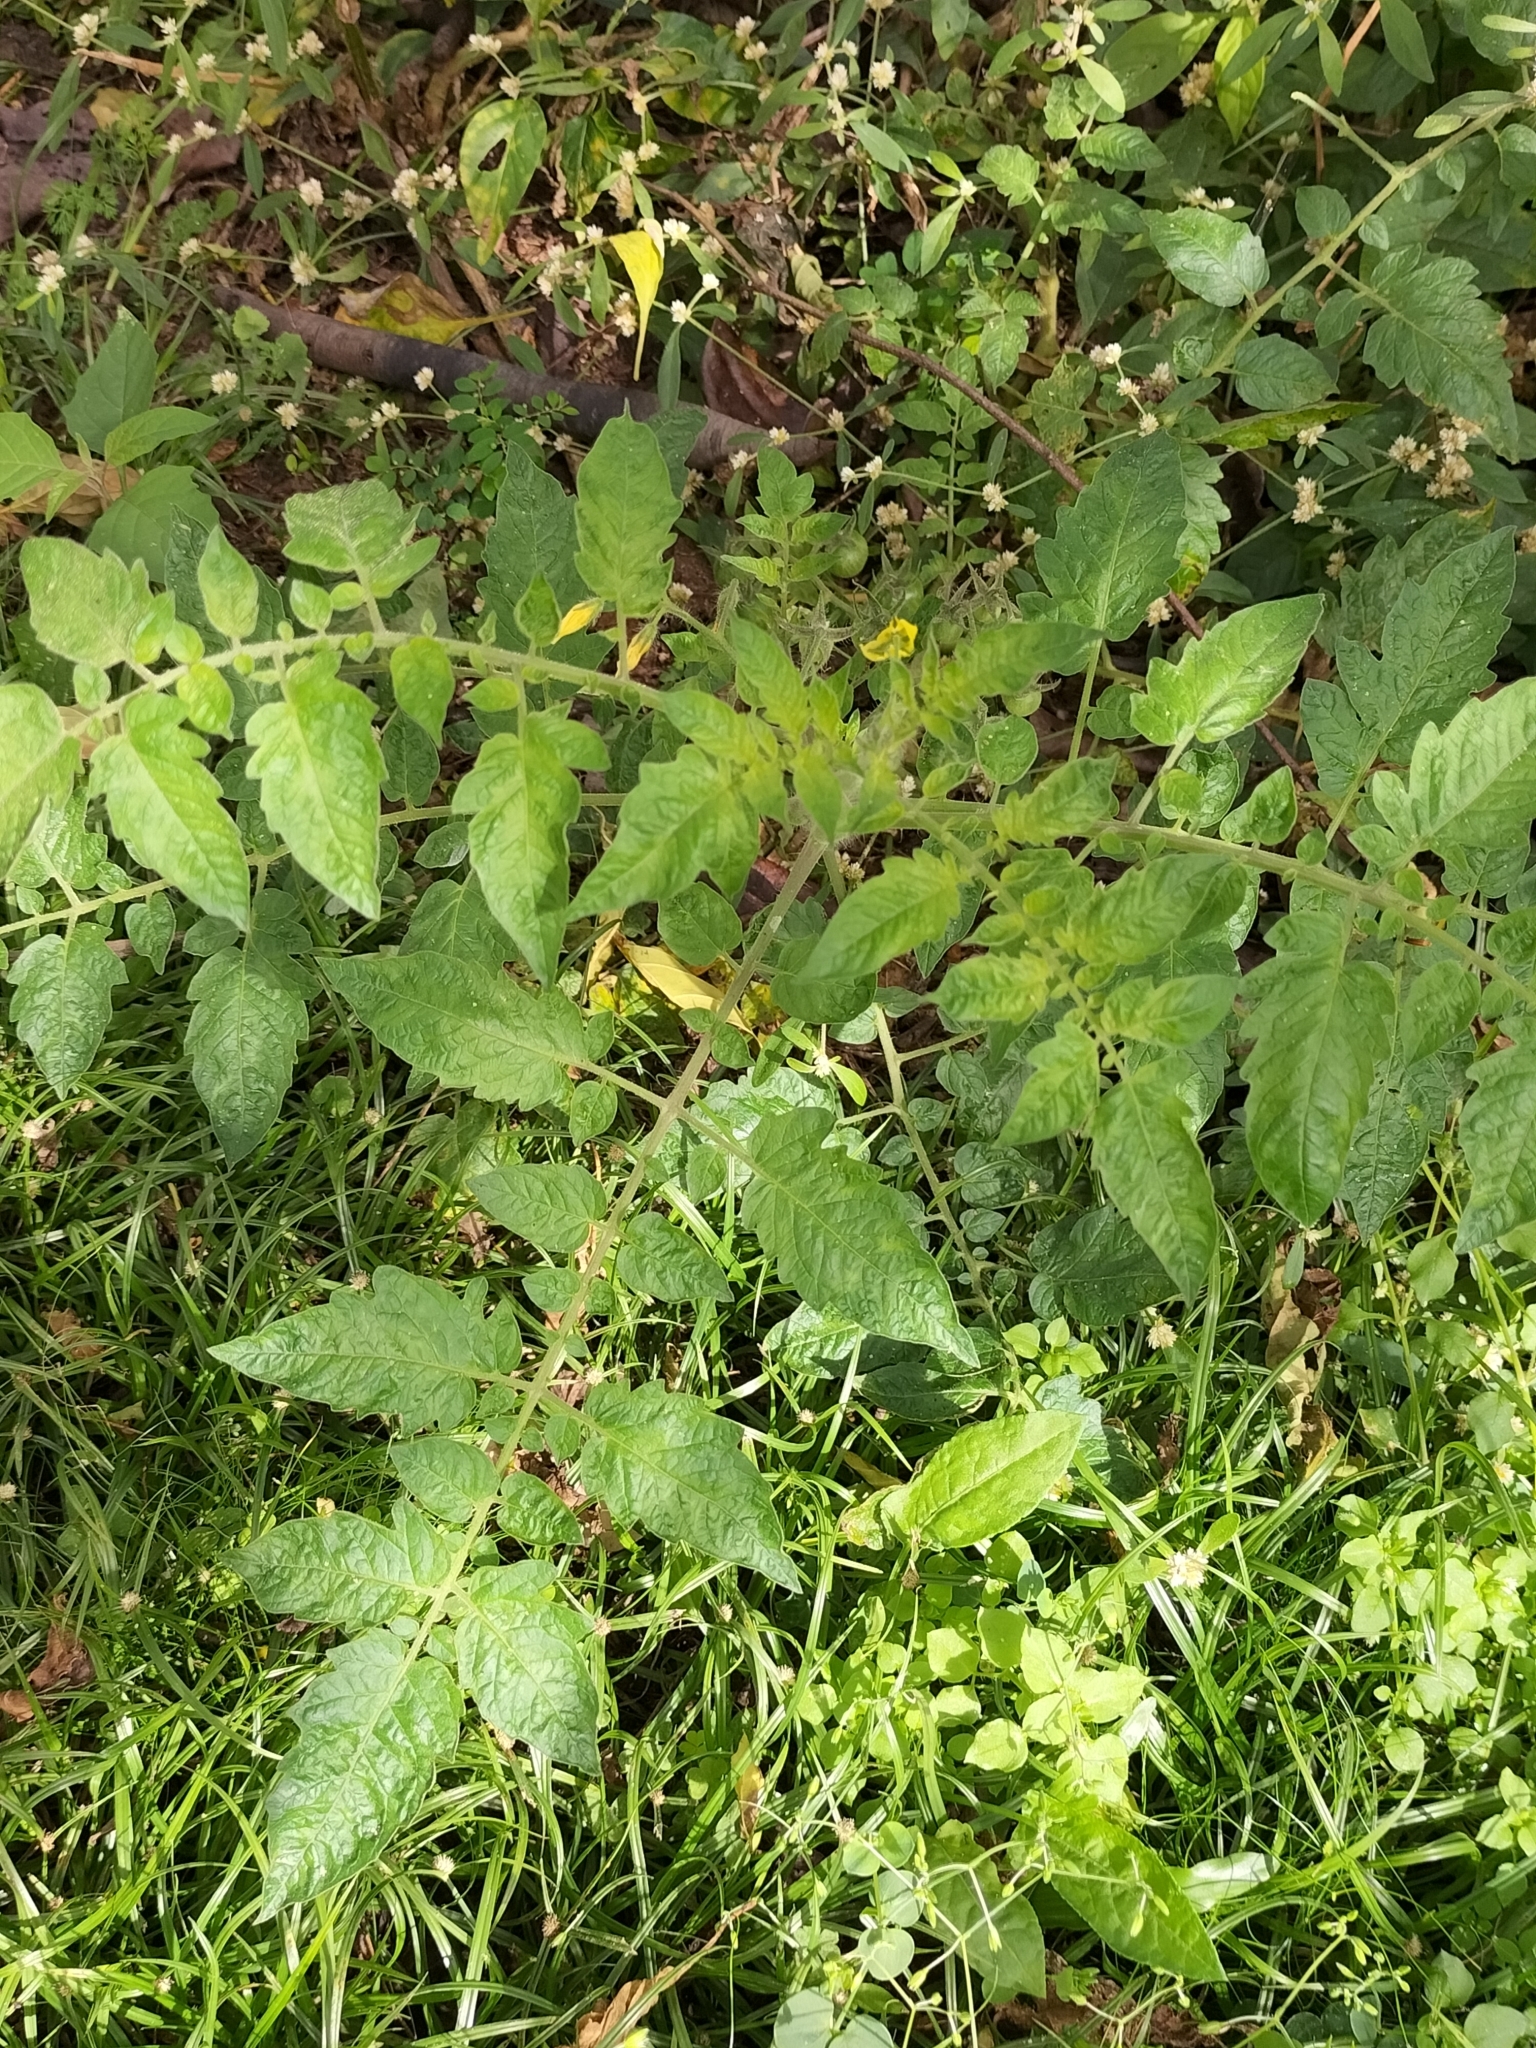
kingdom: Plantae
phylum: Tracheophyta
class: Magnoliopsida
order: Solanales
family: Solanaceae
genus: Solanum
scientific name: Solanum lycopersicum
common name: Garden tomato
